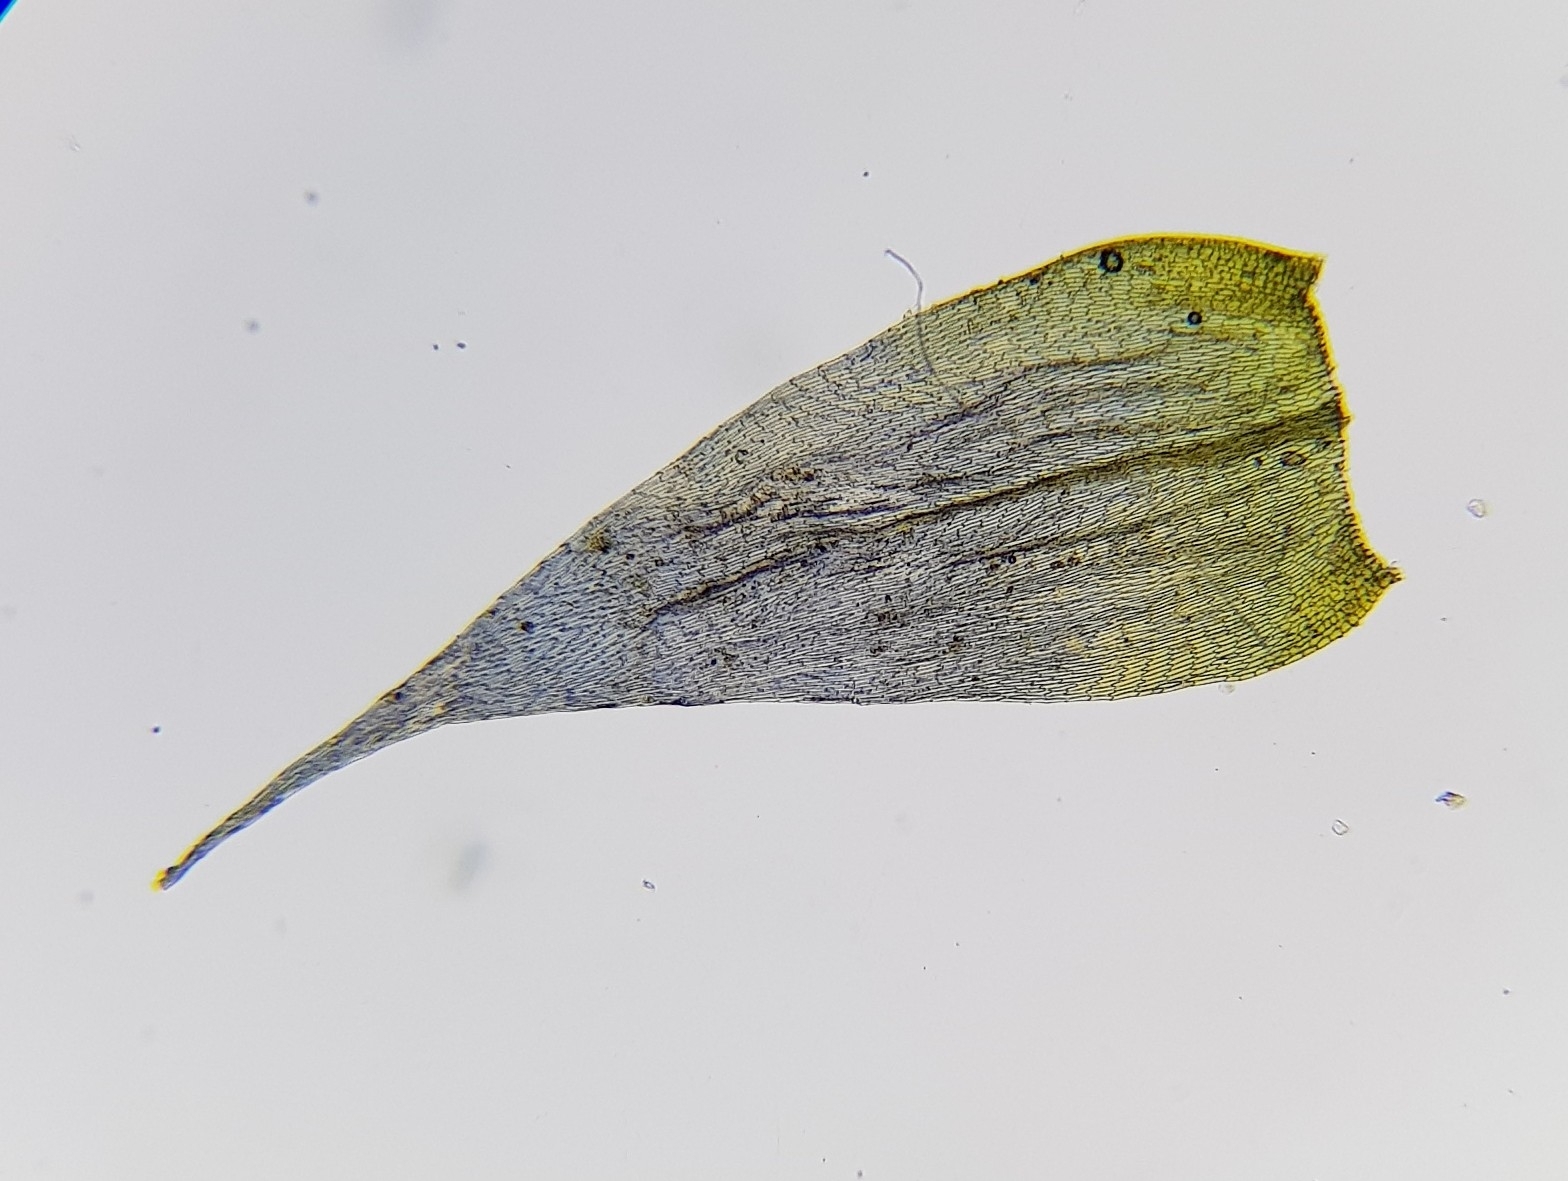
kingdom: Plantae
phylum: Bryophyta
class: Bryopsida
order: Hypnales
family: Brachytheciaceae
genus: Brachythecium
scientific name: Brachythecium albicans
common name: Whitish ragged moss
